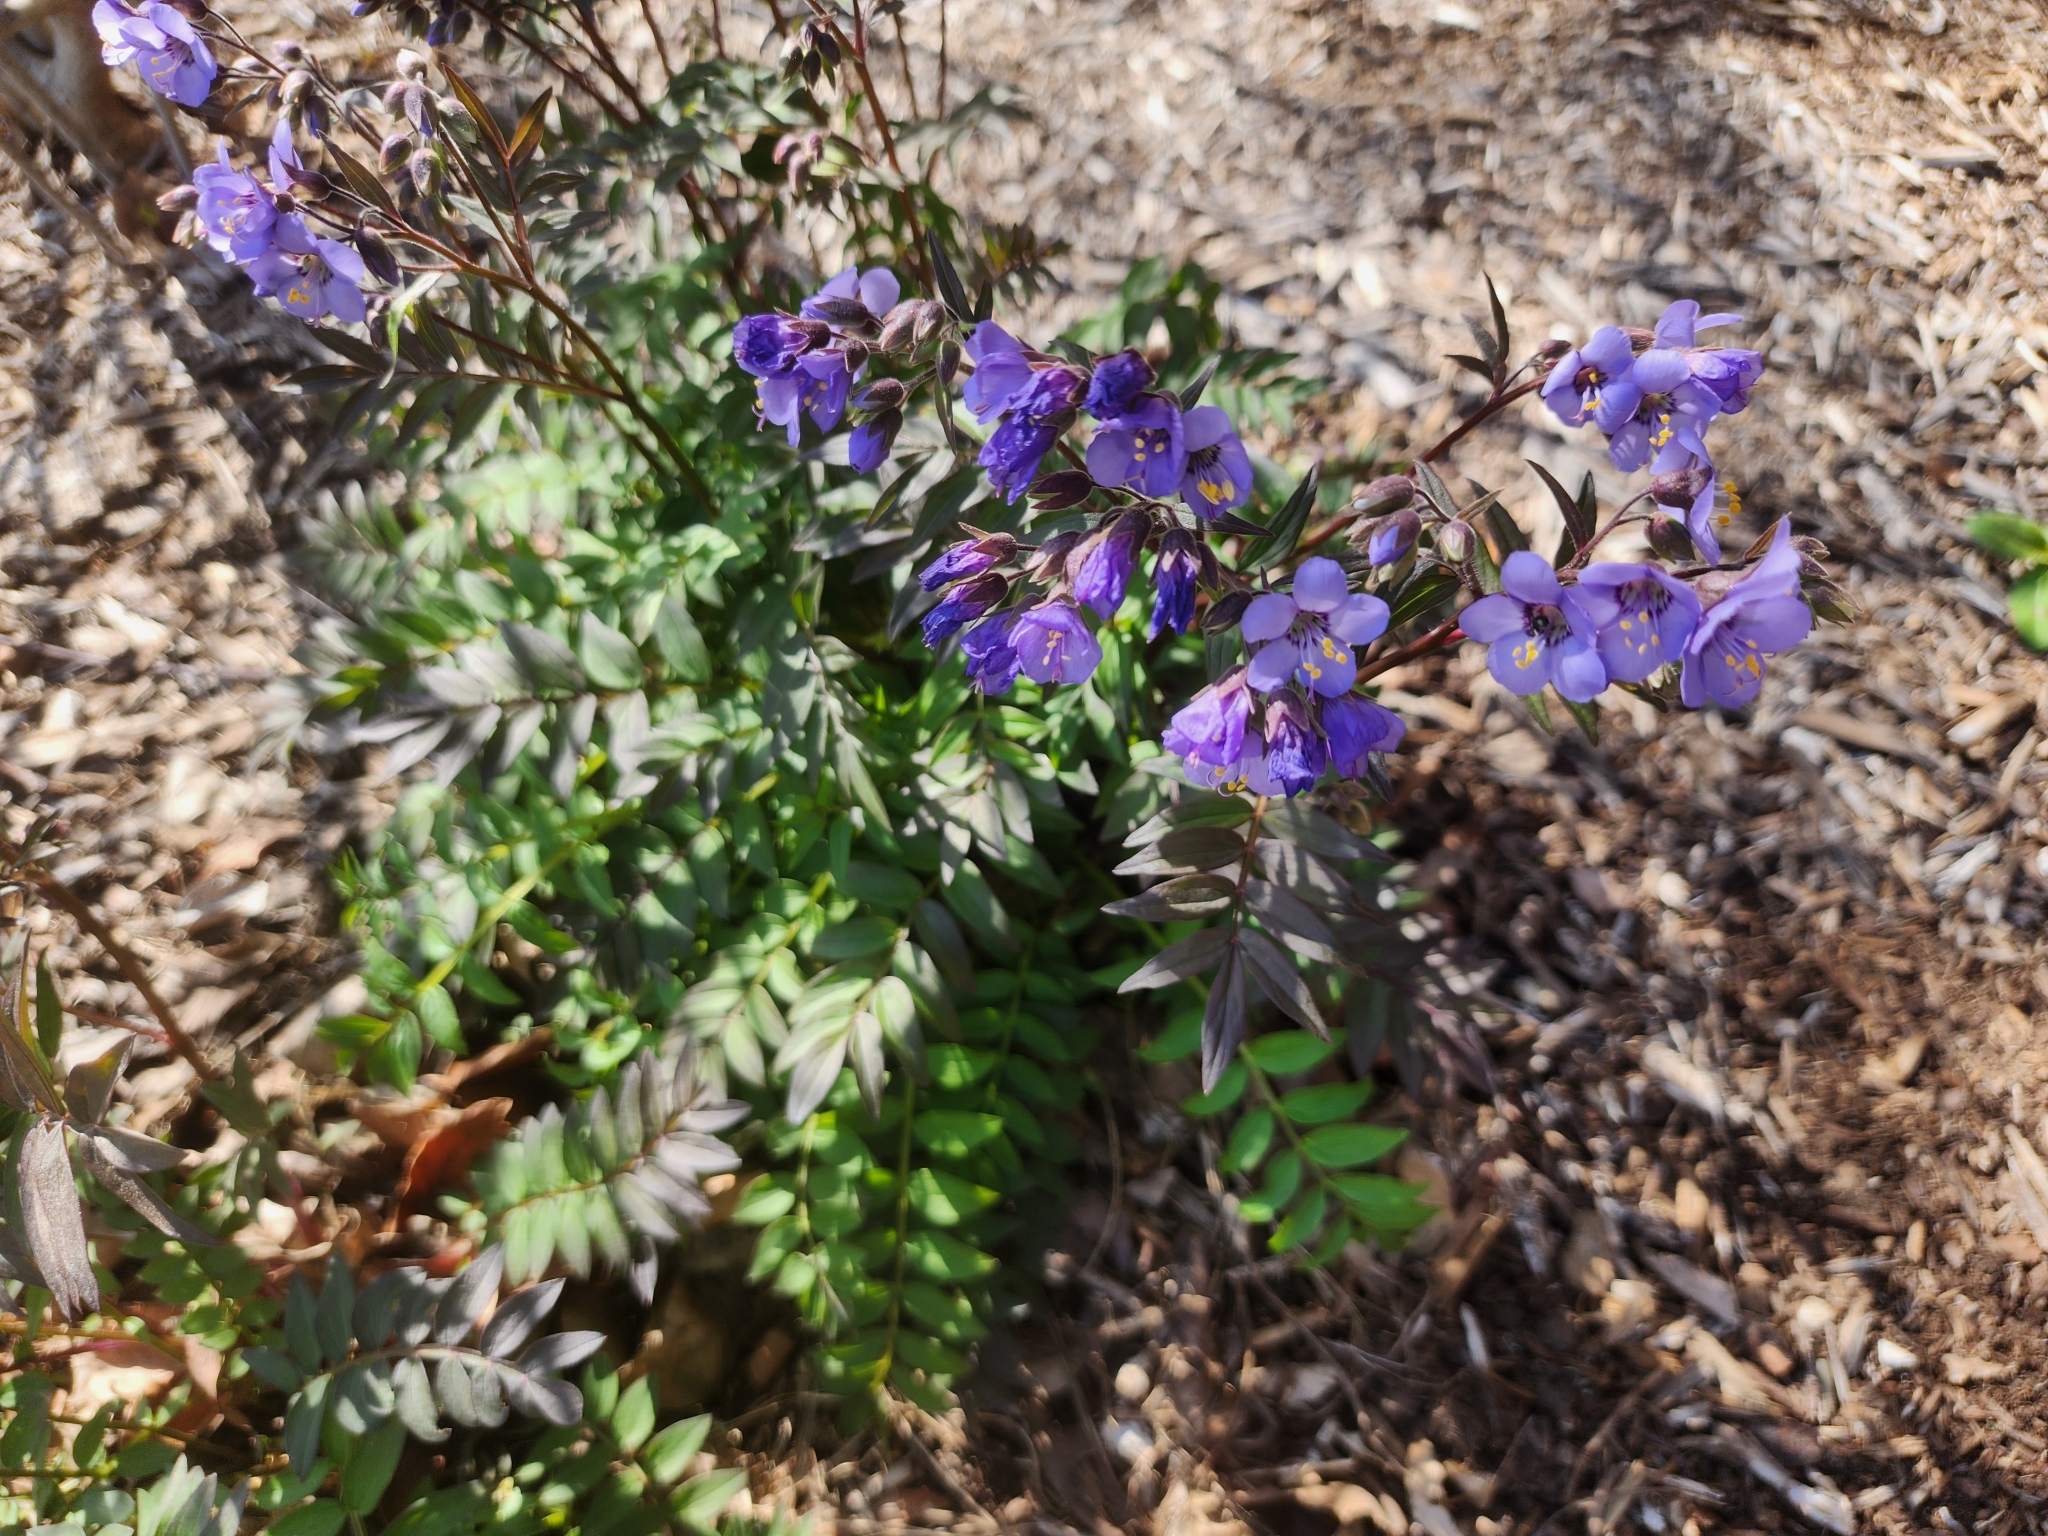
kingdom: Plantae
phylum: Tracheophyta
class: Magnoliopsida
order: Ericales
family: Polemoniaceae
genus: Polemonium
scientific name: Polemonium reptans
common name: Creeping jacob's-ladder
